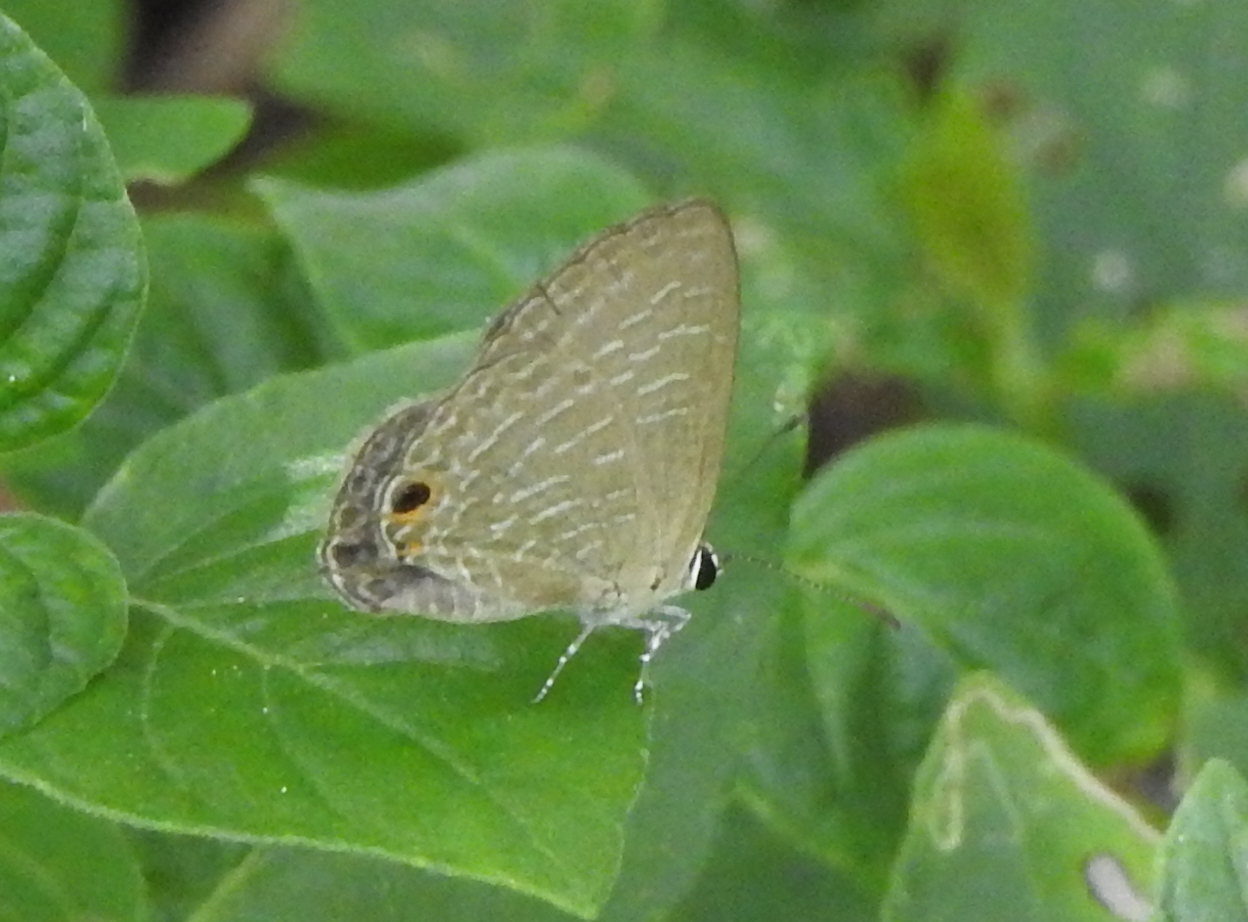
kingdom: Animalia
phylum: Arthropoda
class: Insecta
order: Lepidoptera
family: Lycaenidae
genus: Jamides
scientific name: Jamides bochus
